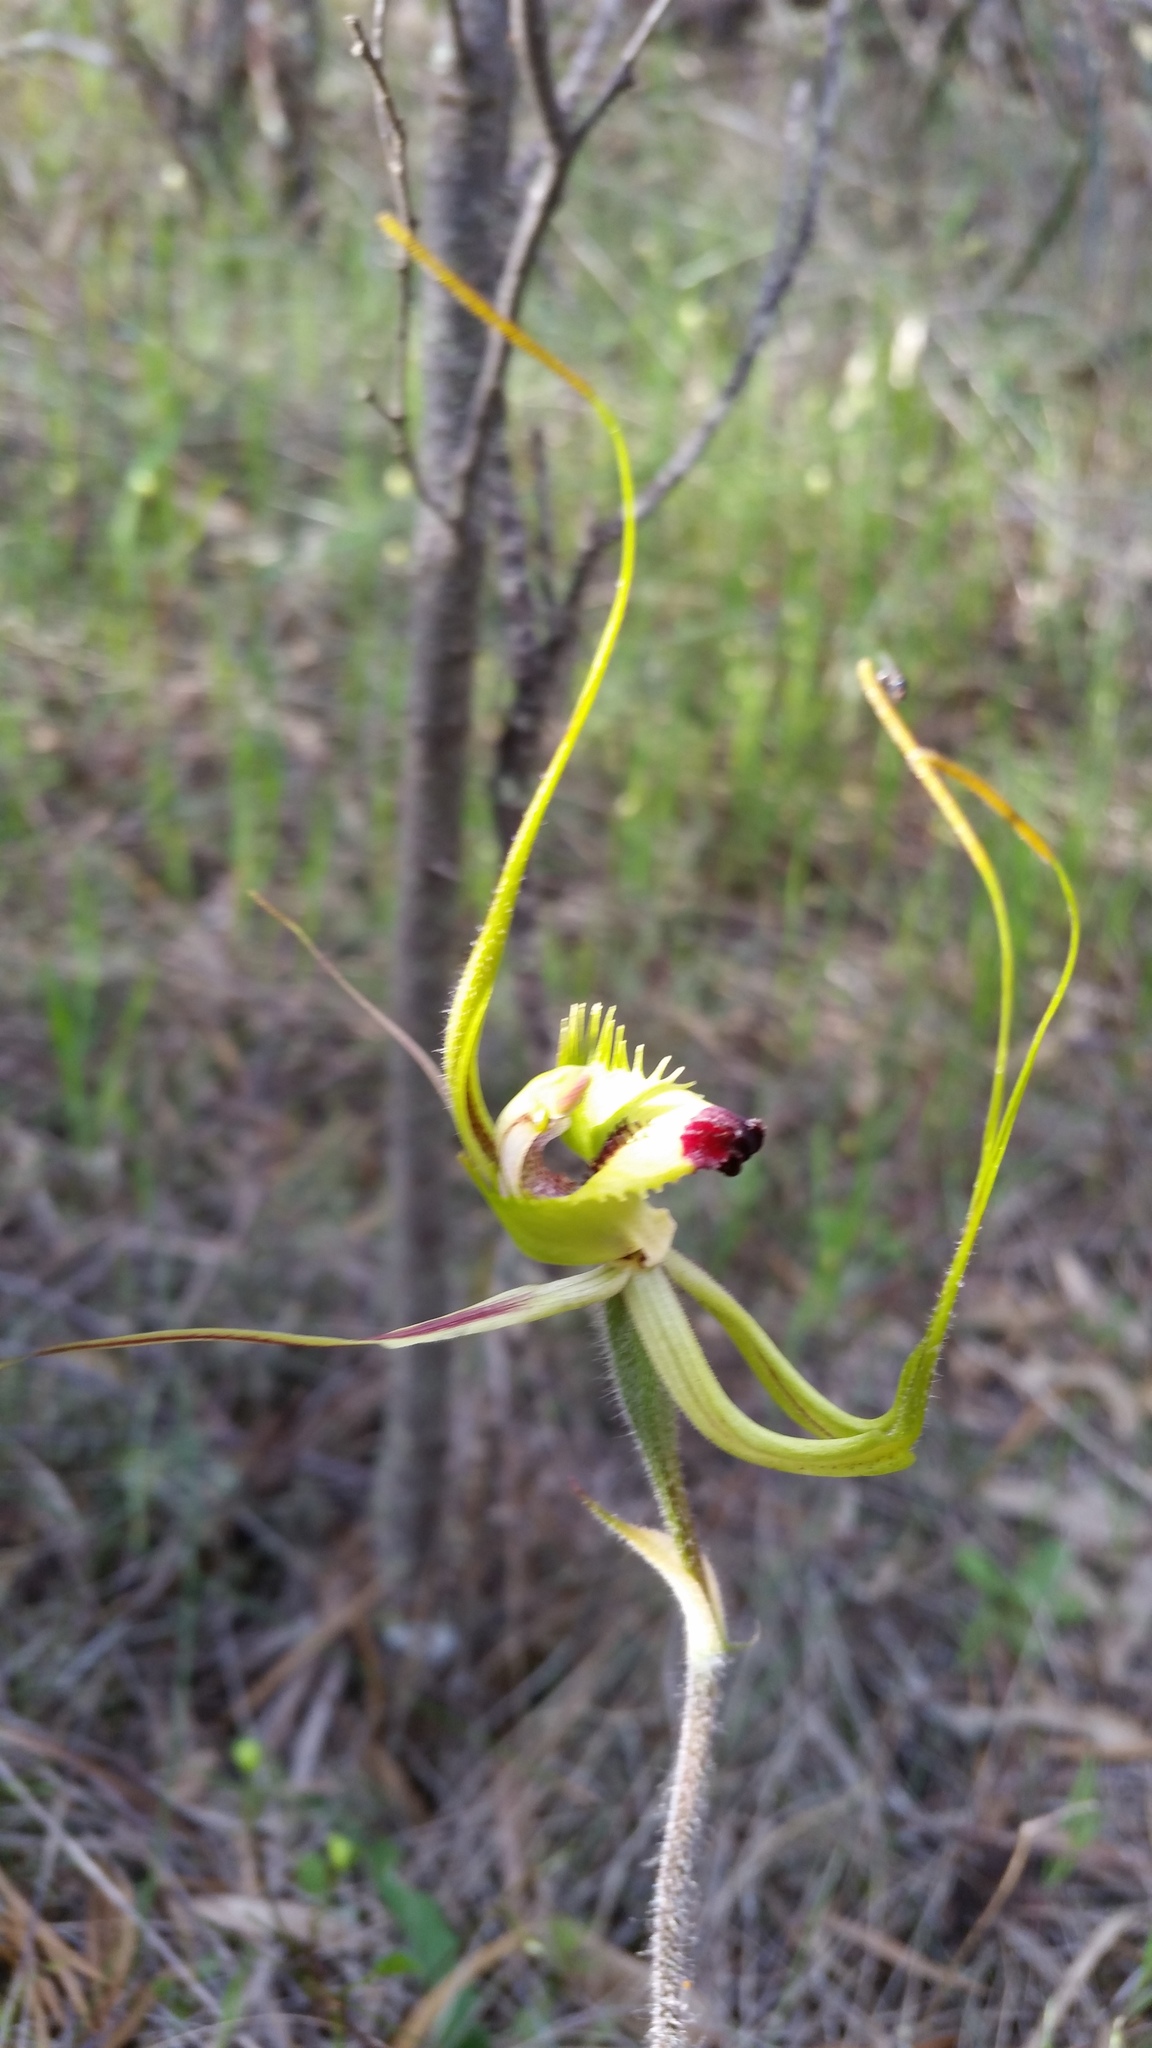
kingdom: Plantae
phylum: Tracheophyta
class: Liliopsida
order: Asparagales
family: Orchidaceae
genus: Caladenia
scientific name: Caladenia falcata
